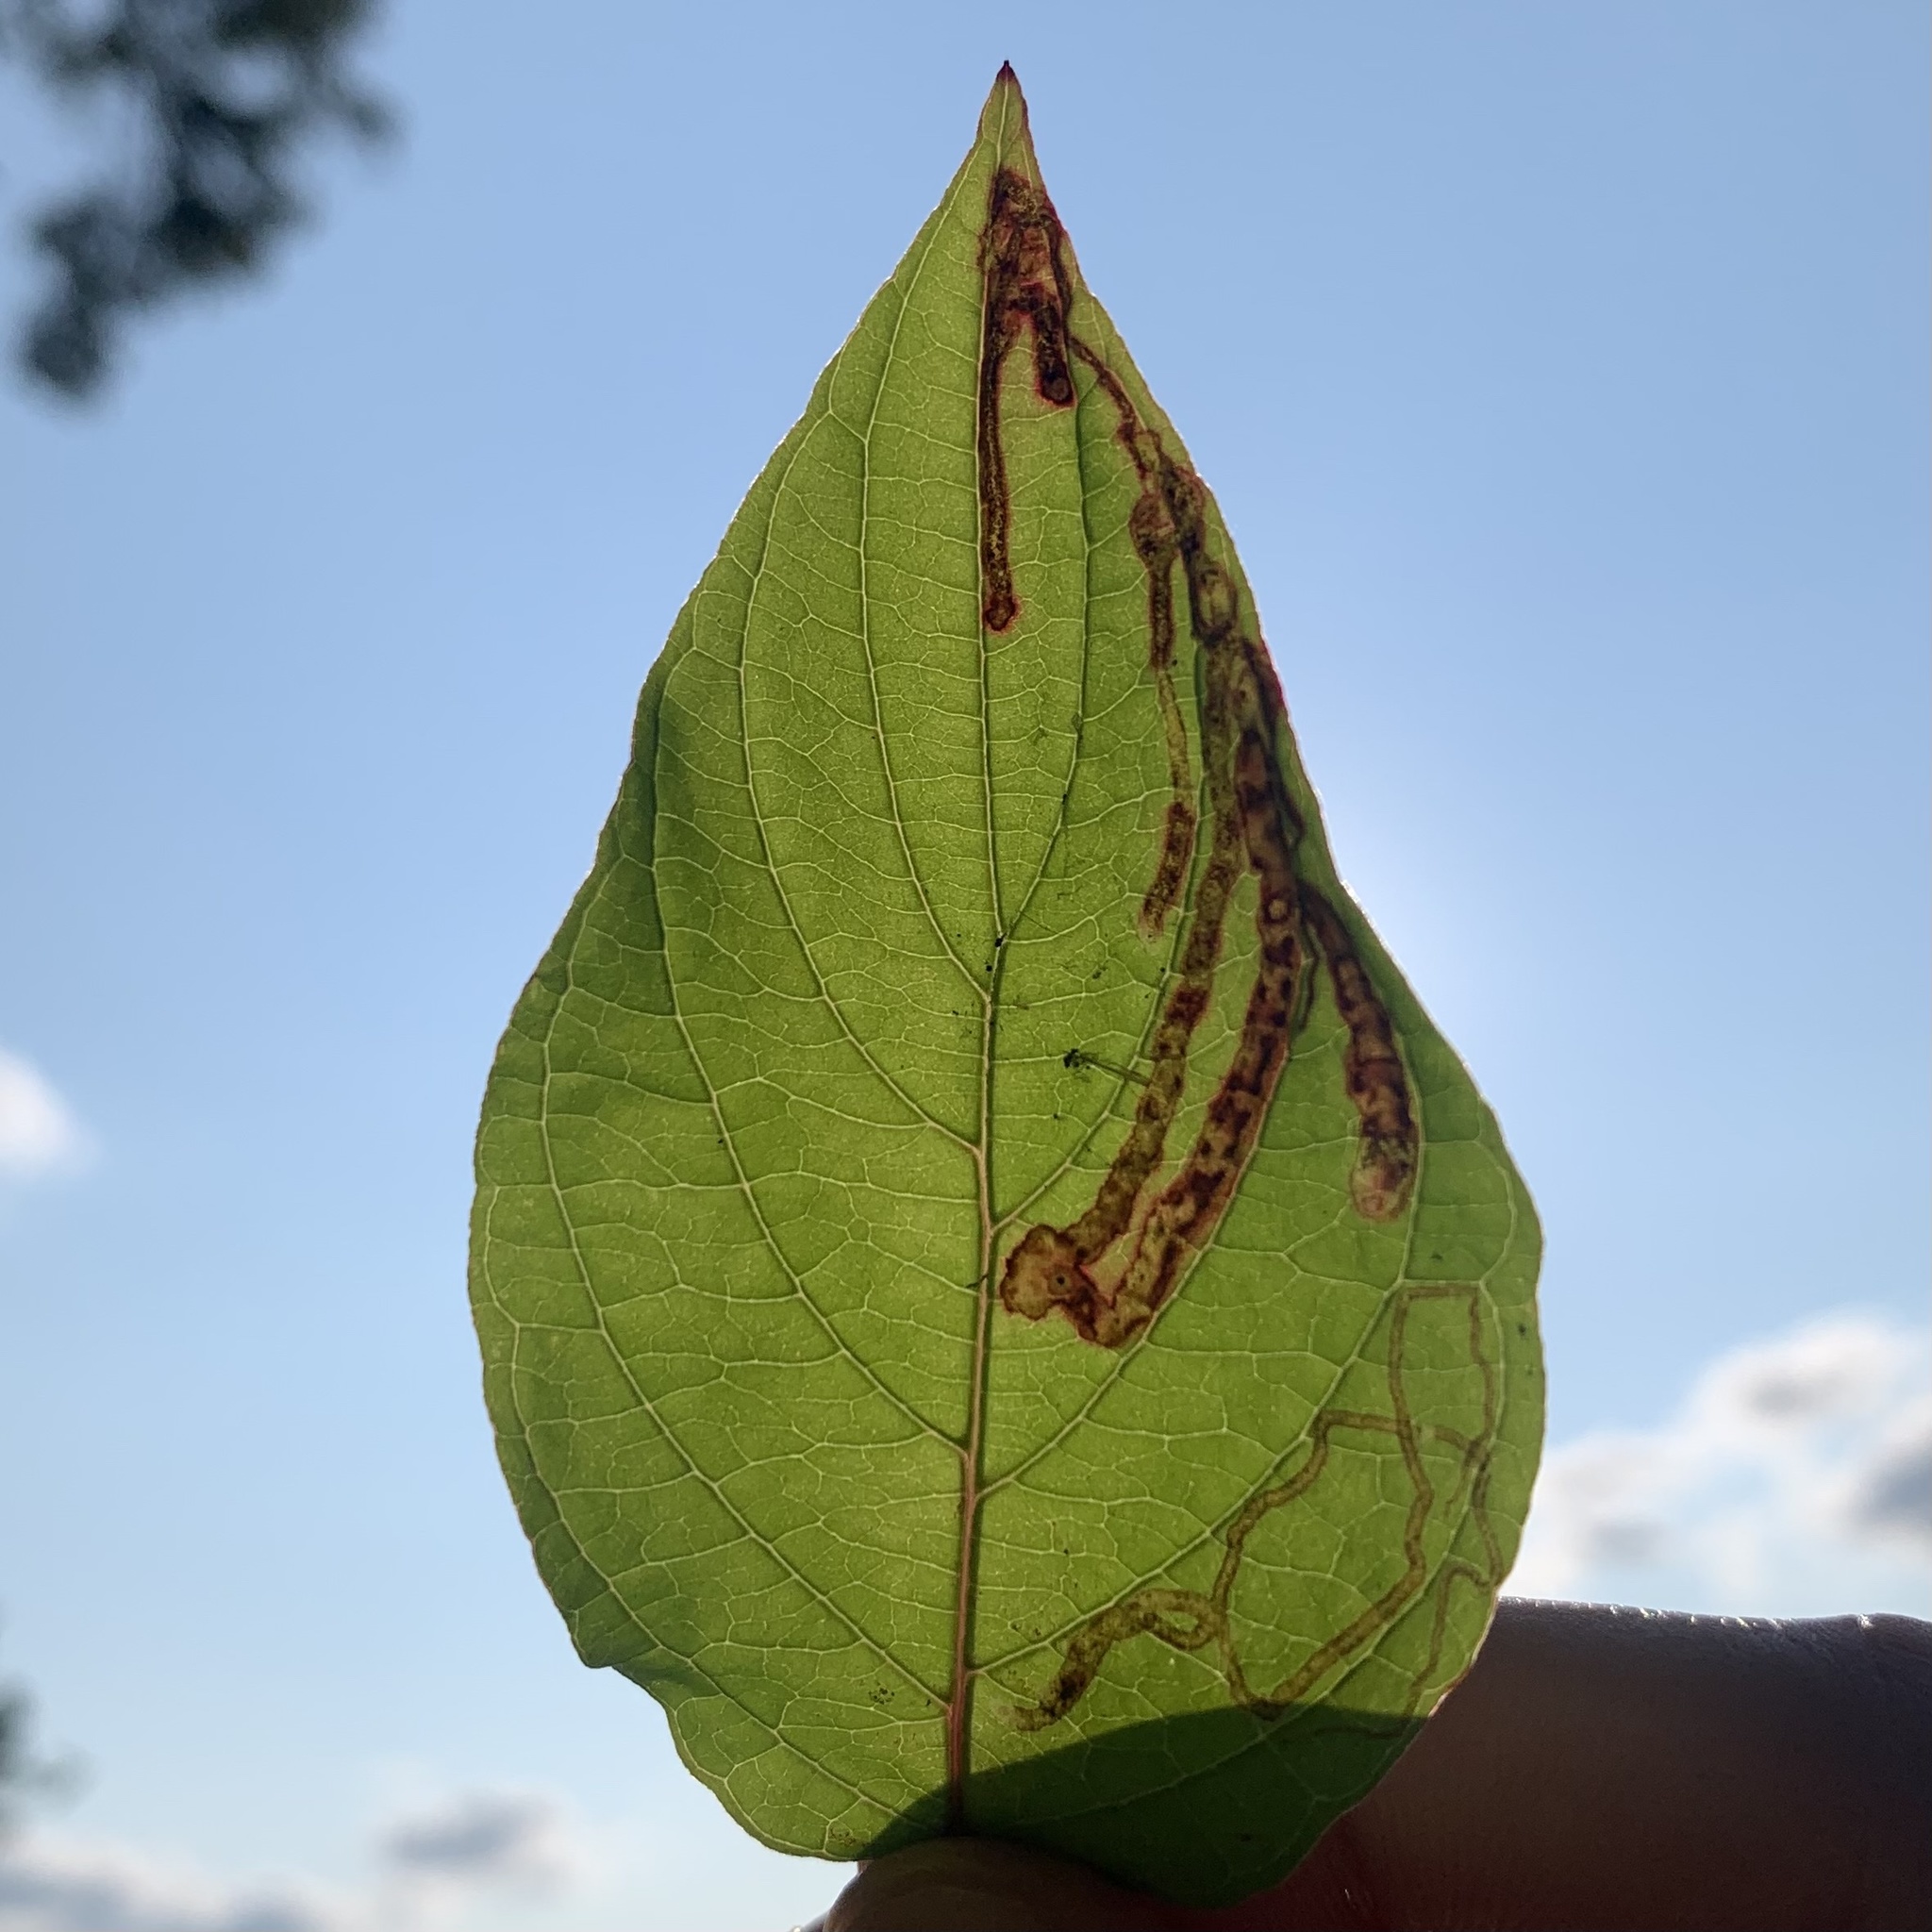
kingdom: Animalia
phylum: Arthropoda
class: Insecta
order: Diptera
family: Agromyzidae
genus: Phytomyza
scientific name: Phytomyza agromyzina
